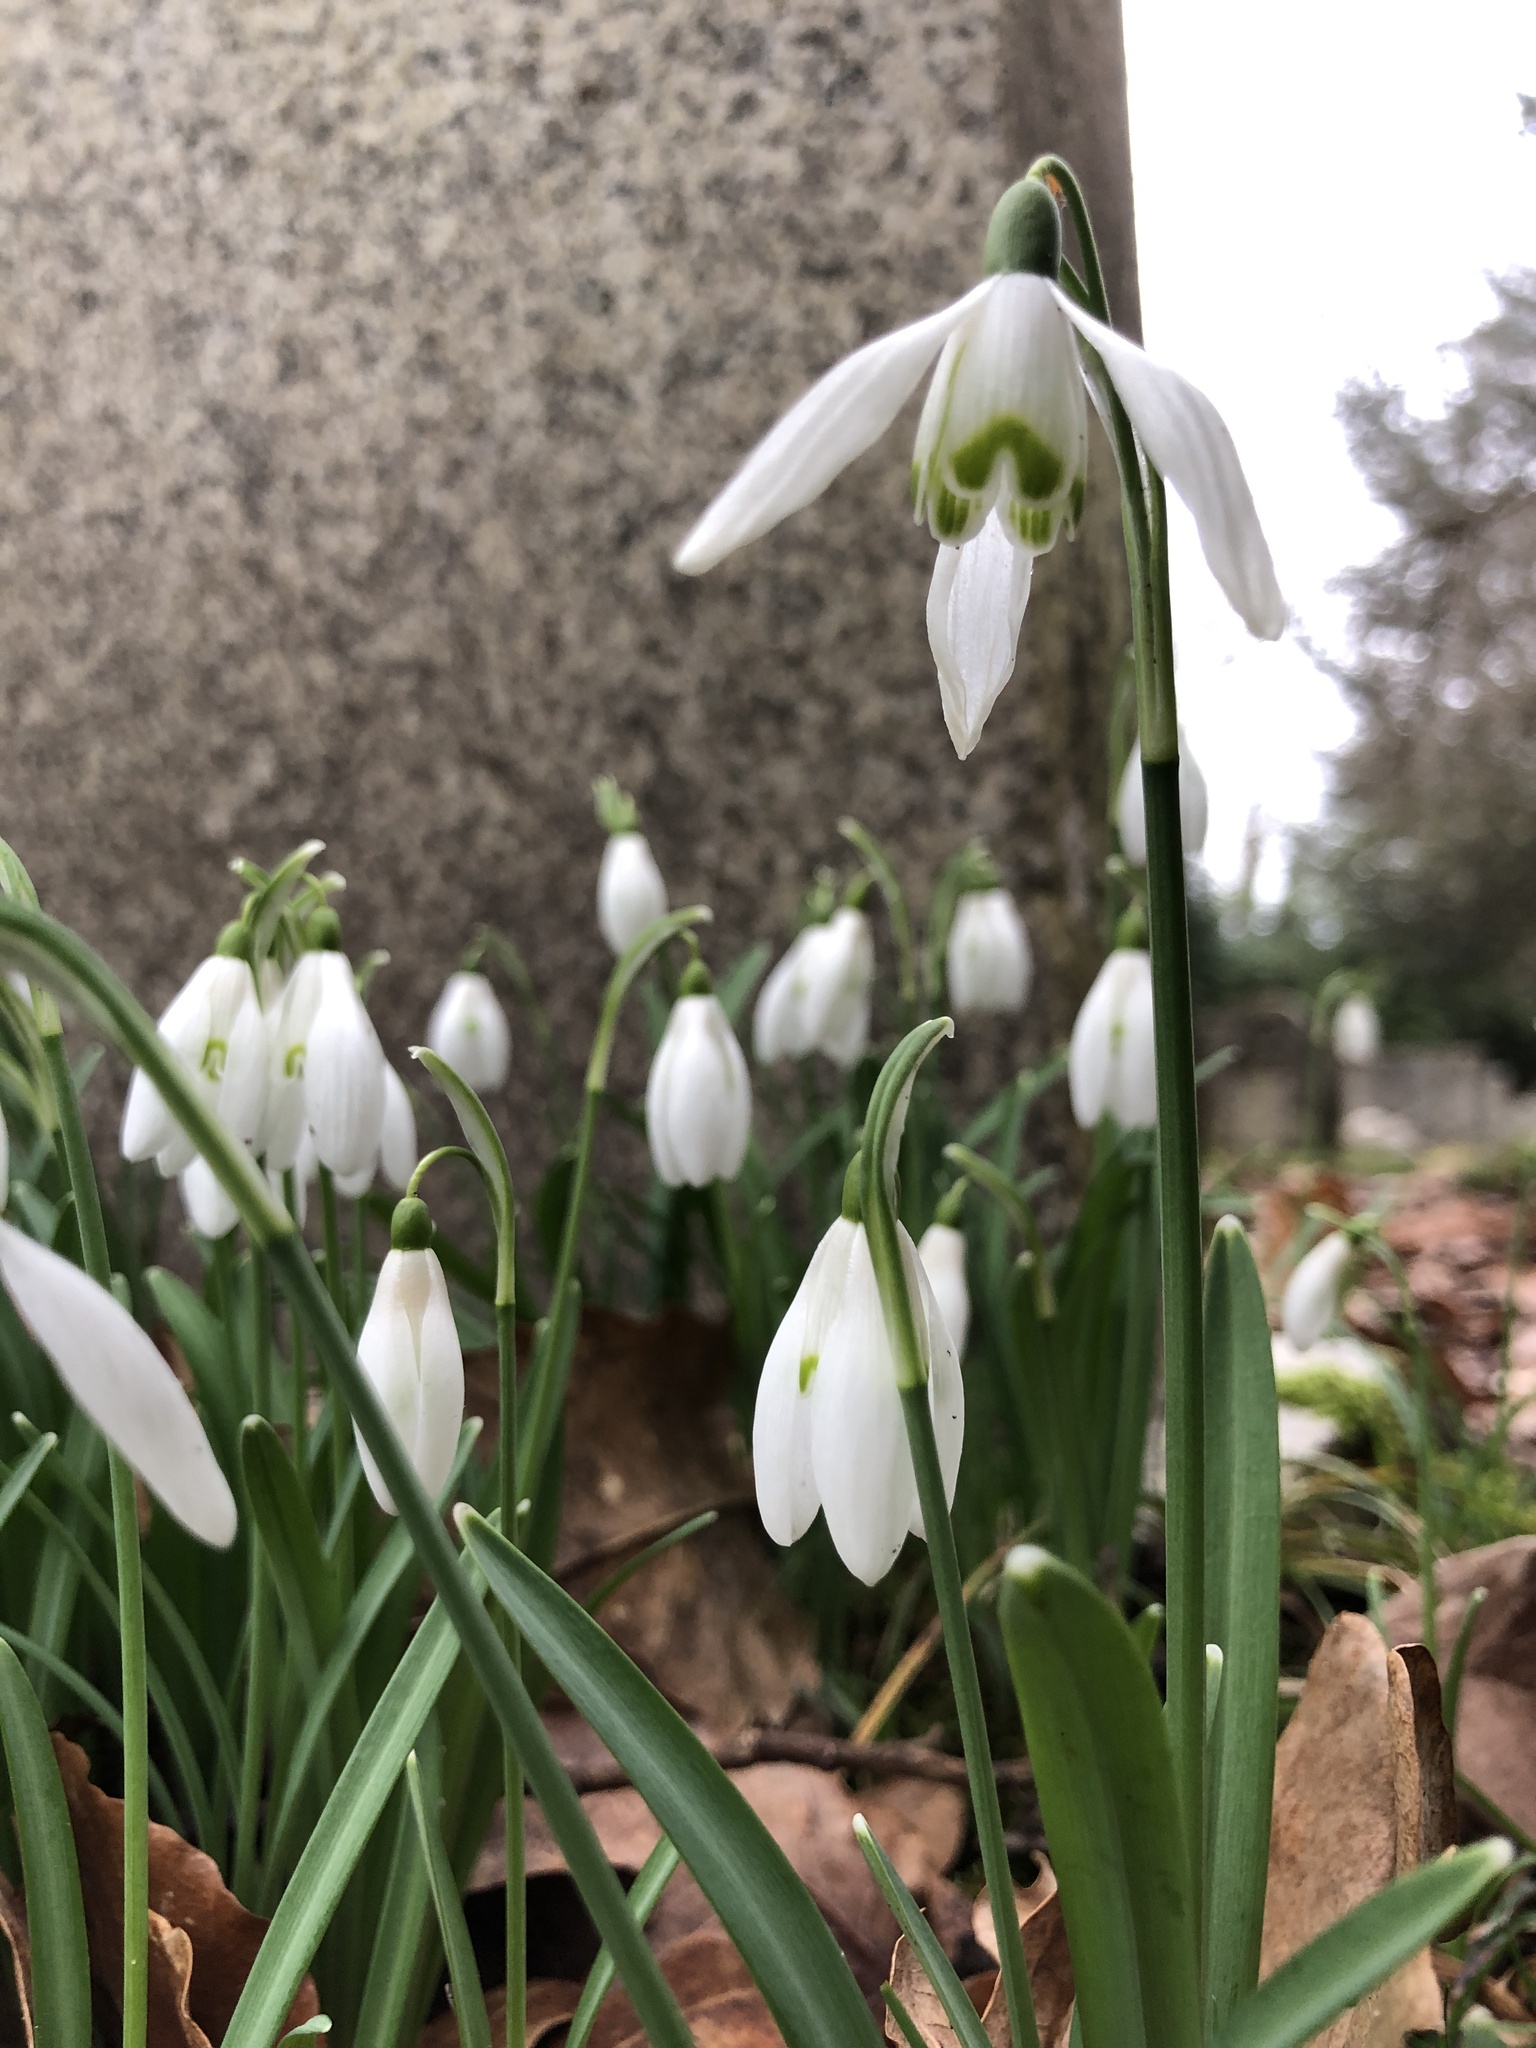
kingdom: Plantae
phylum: Tracheophyta
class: Liliopsida
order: Asparagales
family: Amaryllidaceae
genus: Galanthus
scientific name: Galanthus nivalis
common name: Snowdrop
